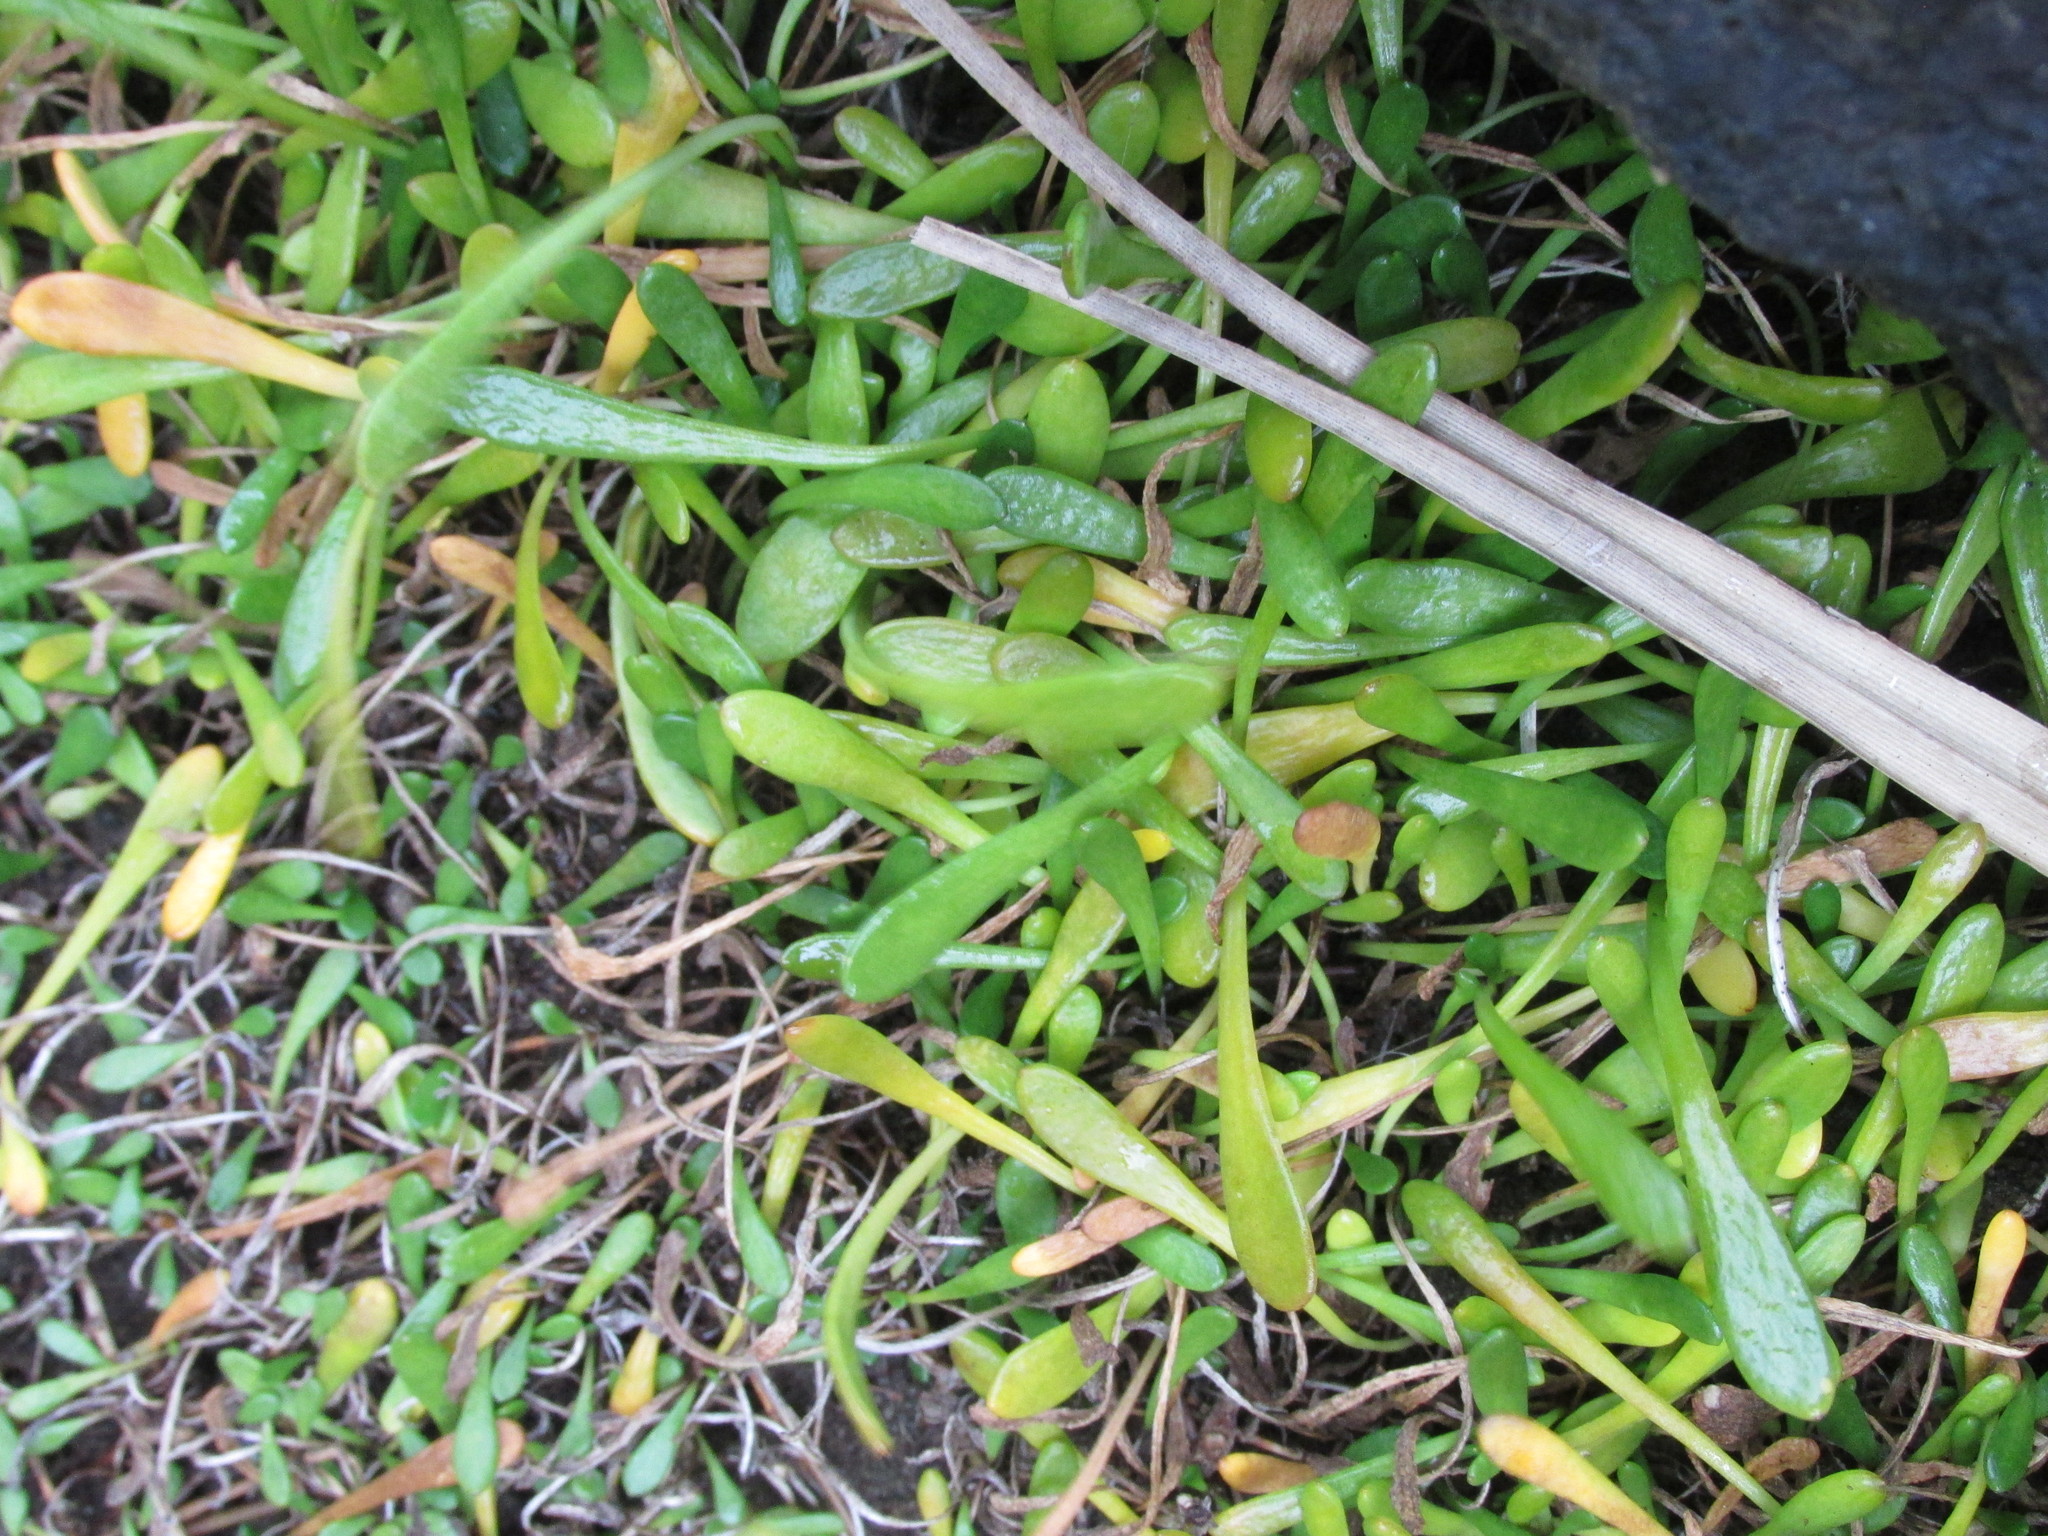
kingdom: Plantae
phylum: Tracheophyta
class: Magnoliopsida
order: Asterales
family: Goodeniaceae
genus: Goodenia
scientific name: Goodenia radicans
